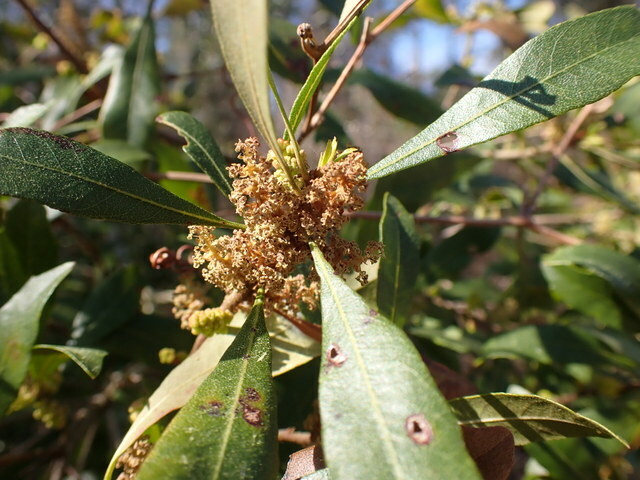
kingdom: Plantae
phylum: Tracheophyta
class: Magnoliopsida
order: Fagales
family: Myricaceae
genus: Morella
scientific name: Morella cerifera
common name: Wax myrtle
